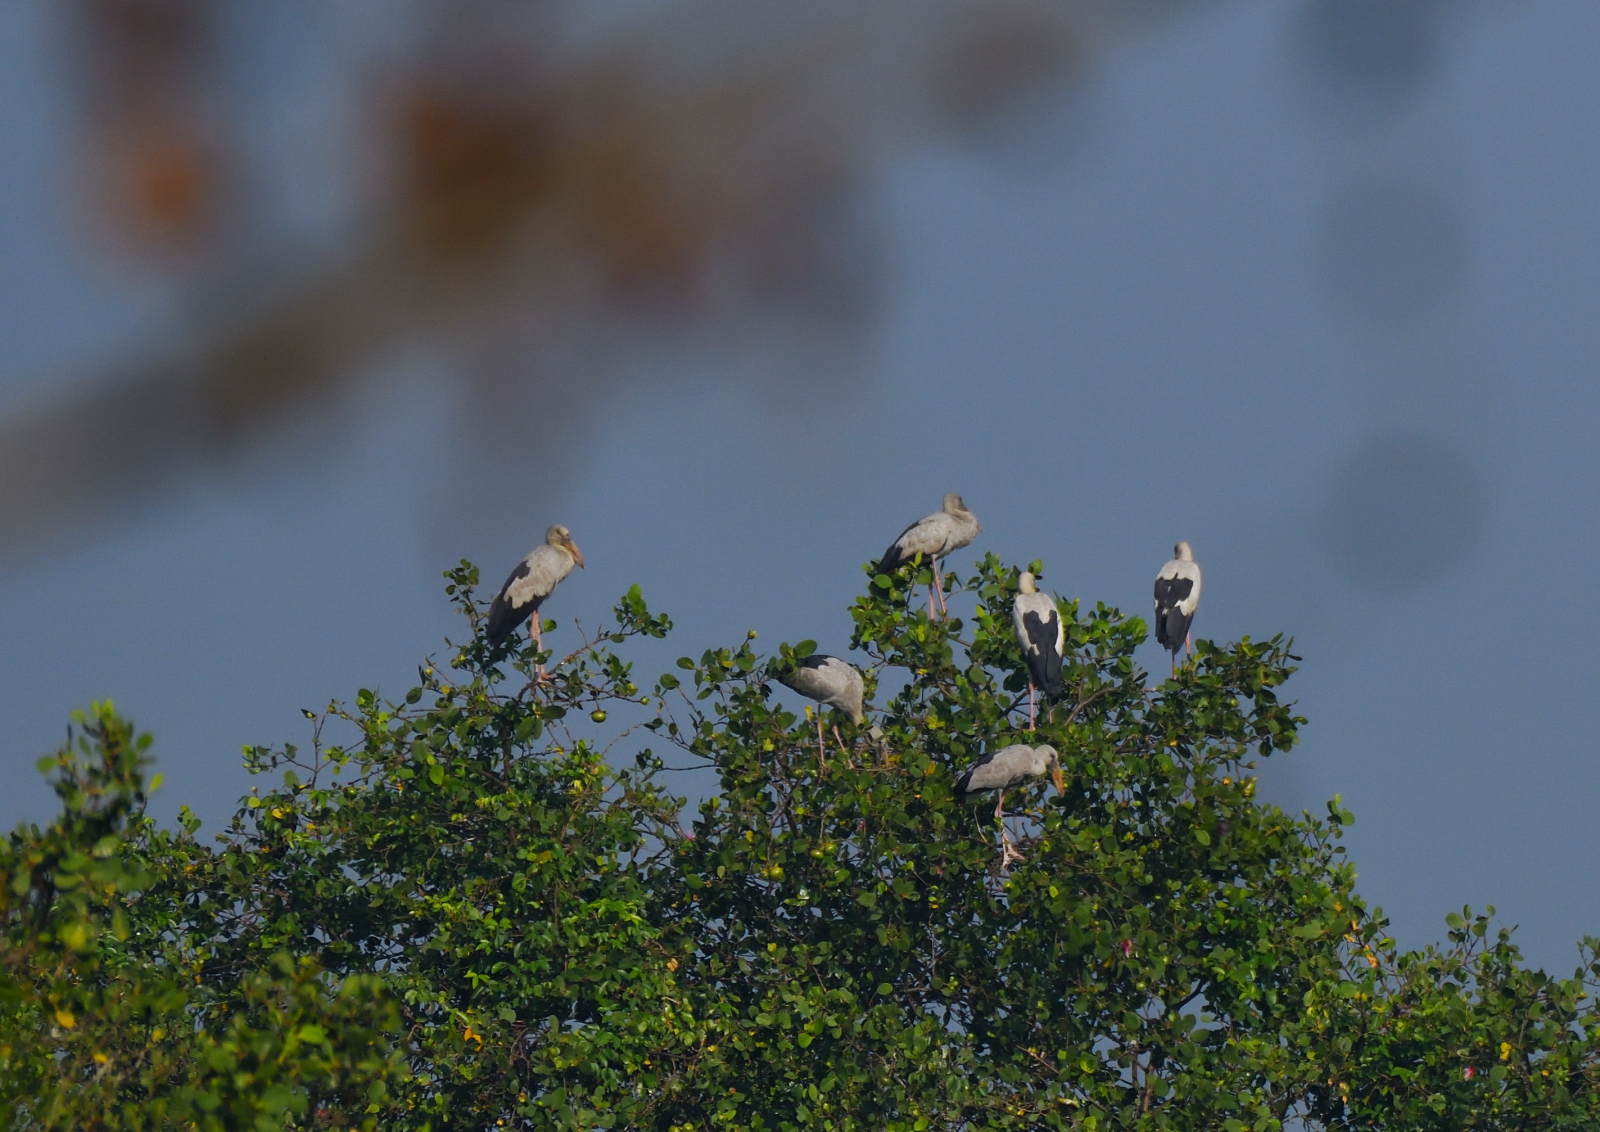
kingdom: Animalia
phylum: Chordata
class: Aves
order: Ciconiiformes
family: Ciconiidae
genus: Anastomus
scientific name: Anastomus oscitans
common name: Asian openbill
